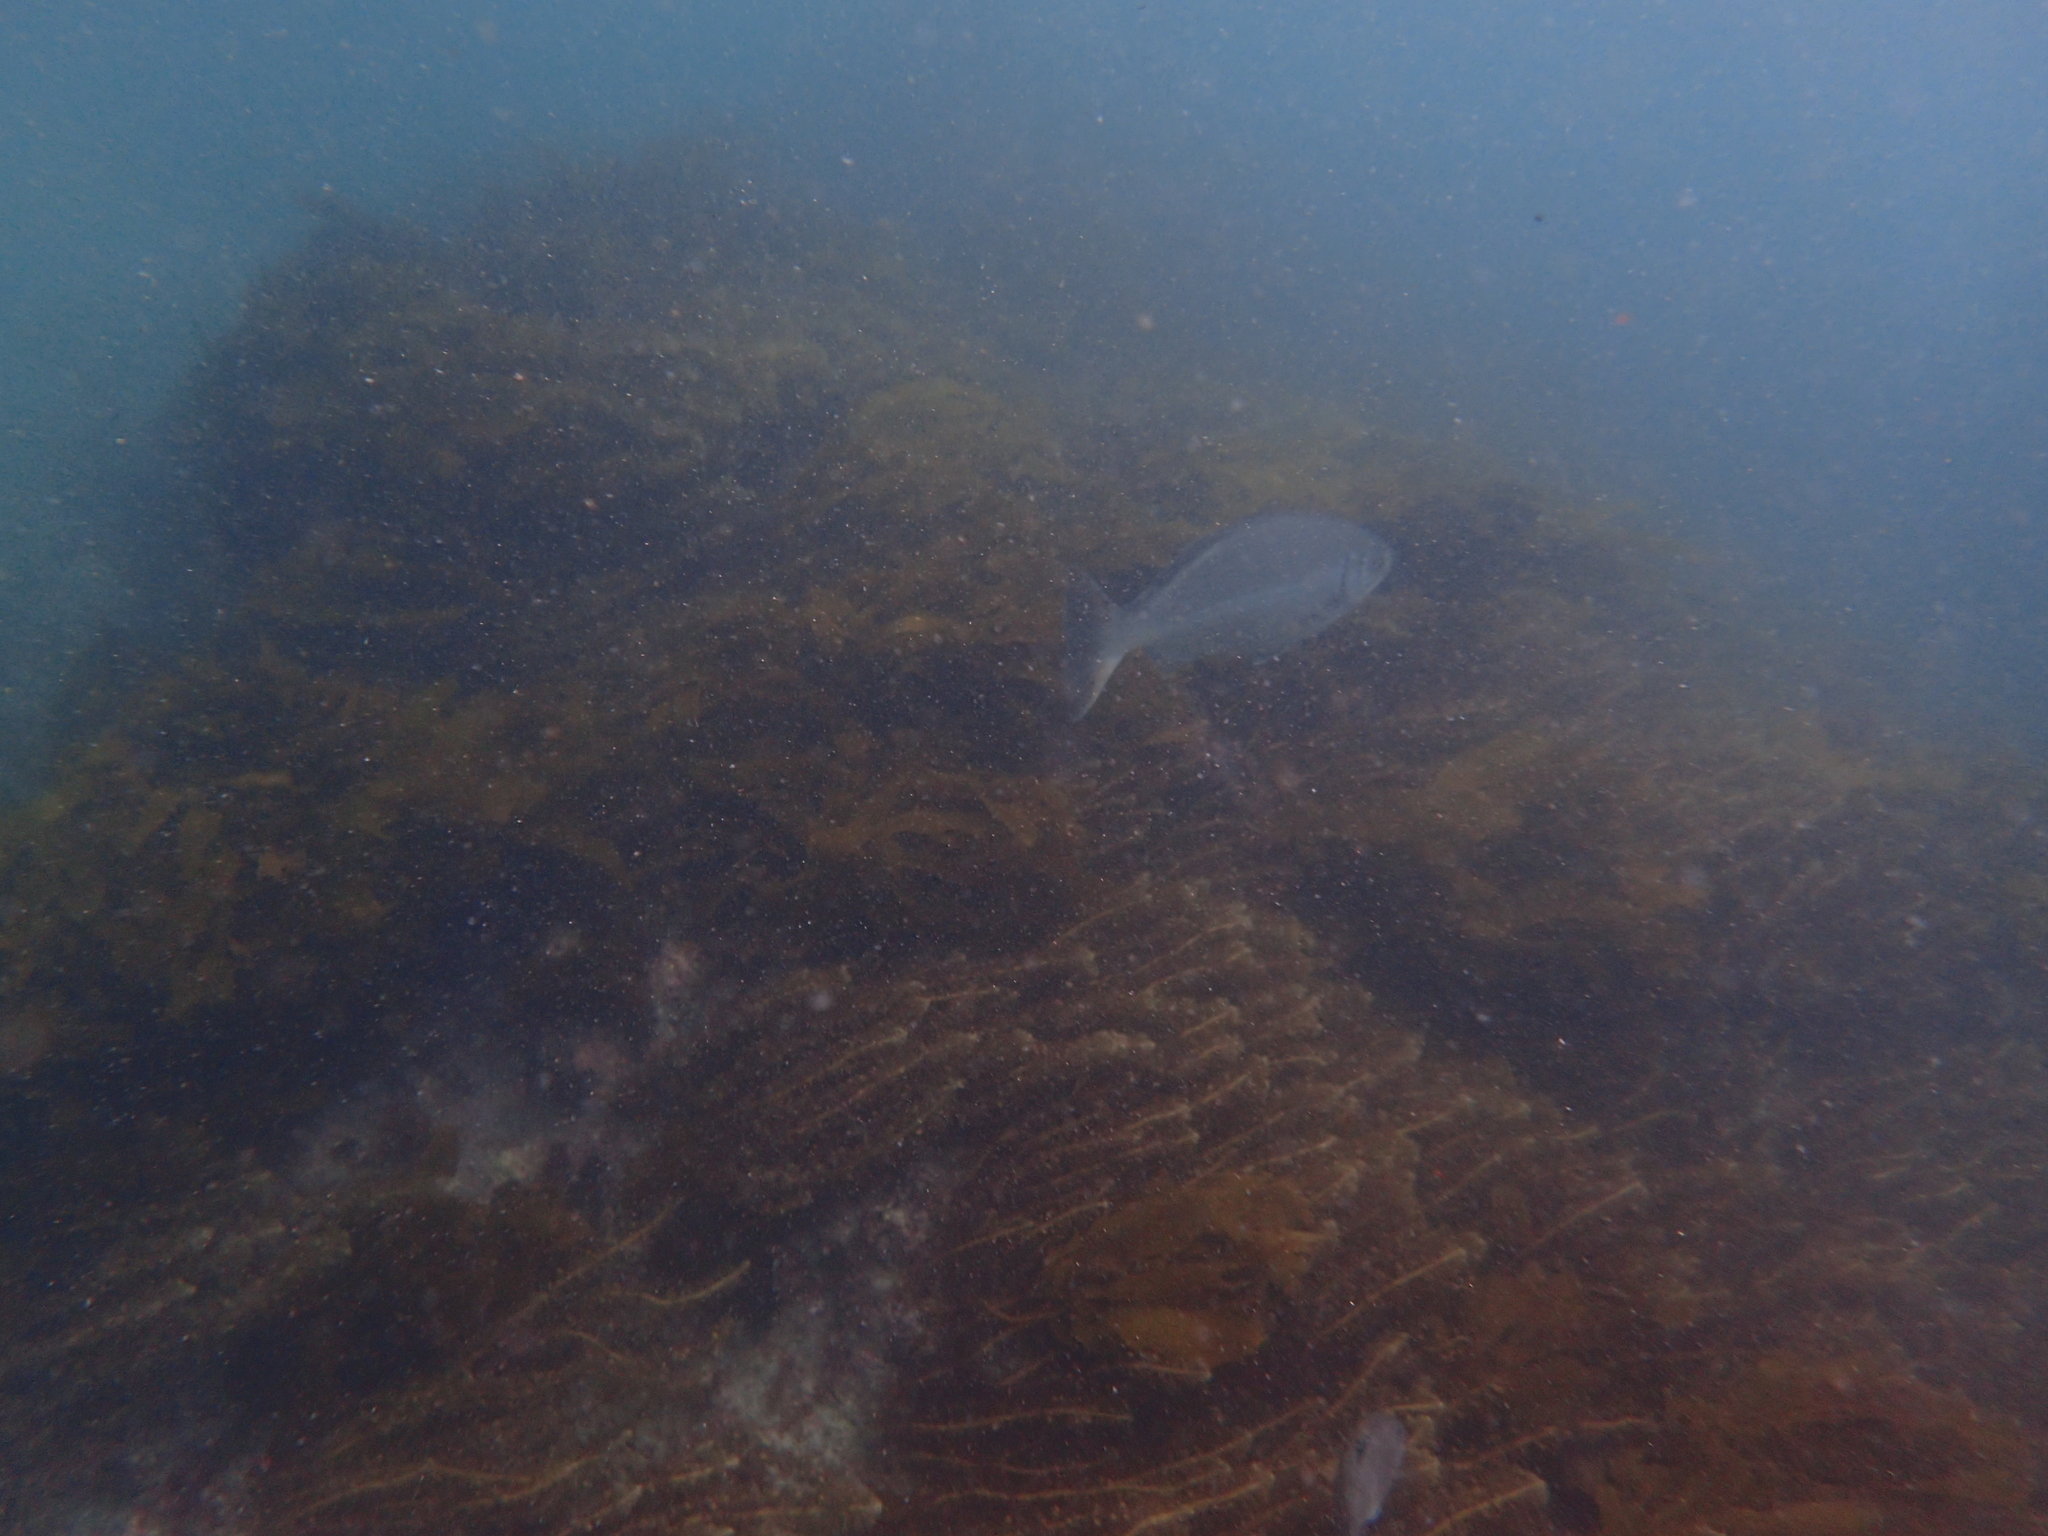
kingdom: Animalia
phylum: Chordata
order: Perciformes
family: Kyphosidae
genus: Kyphosus
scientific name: Kyphosus sydneyanus
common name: Silver drummer
